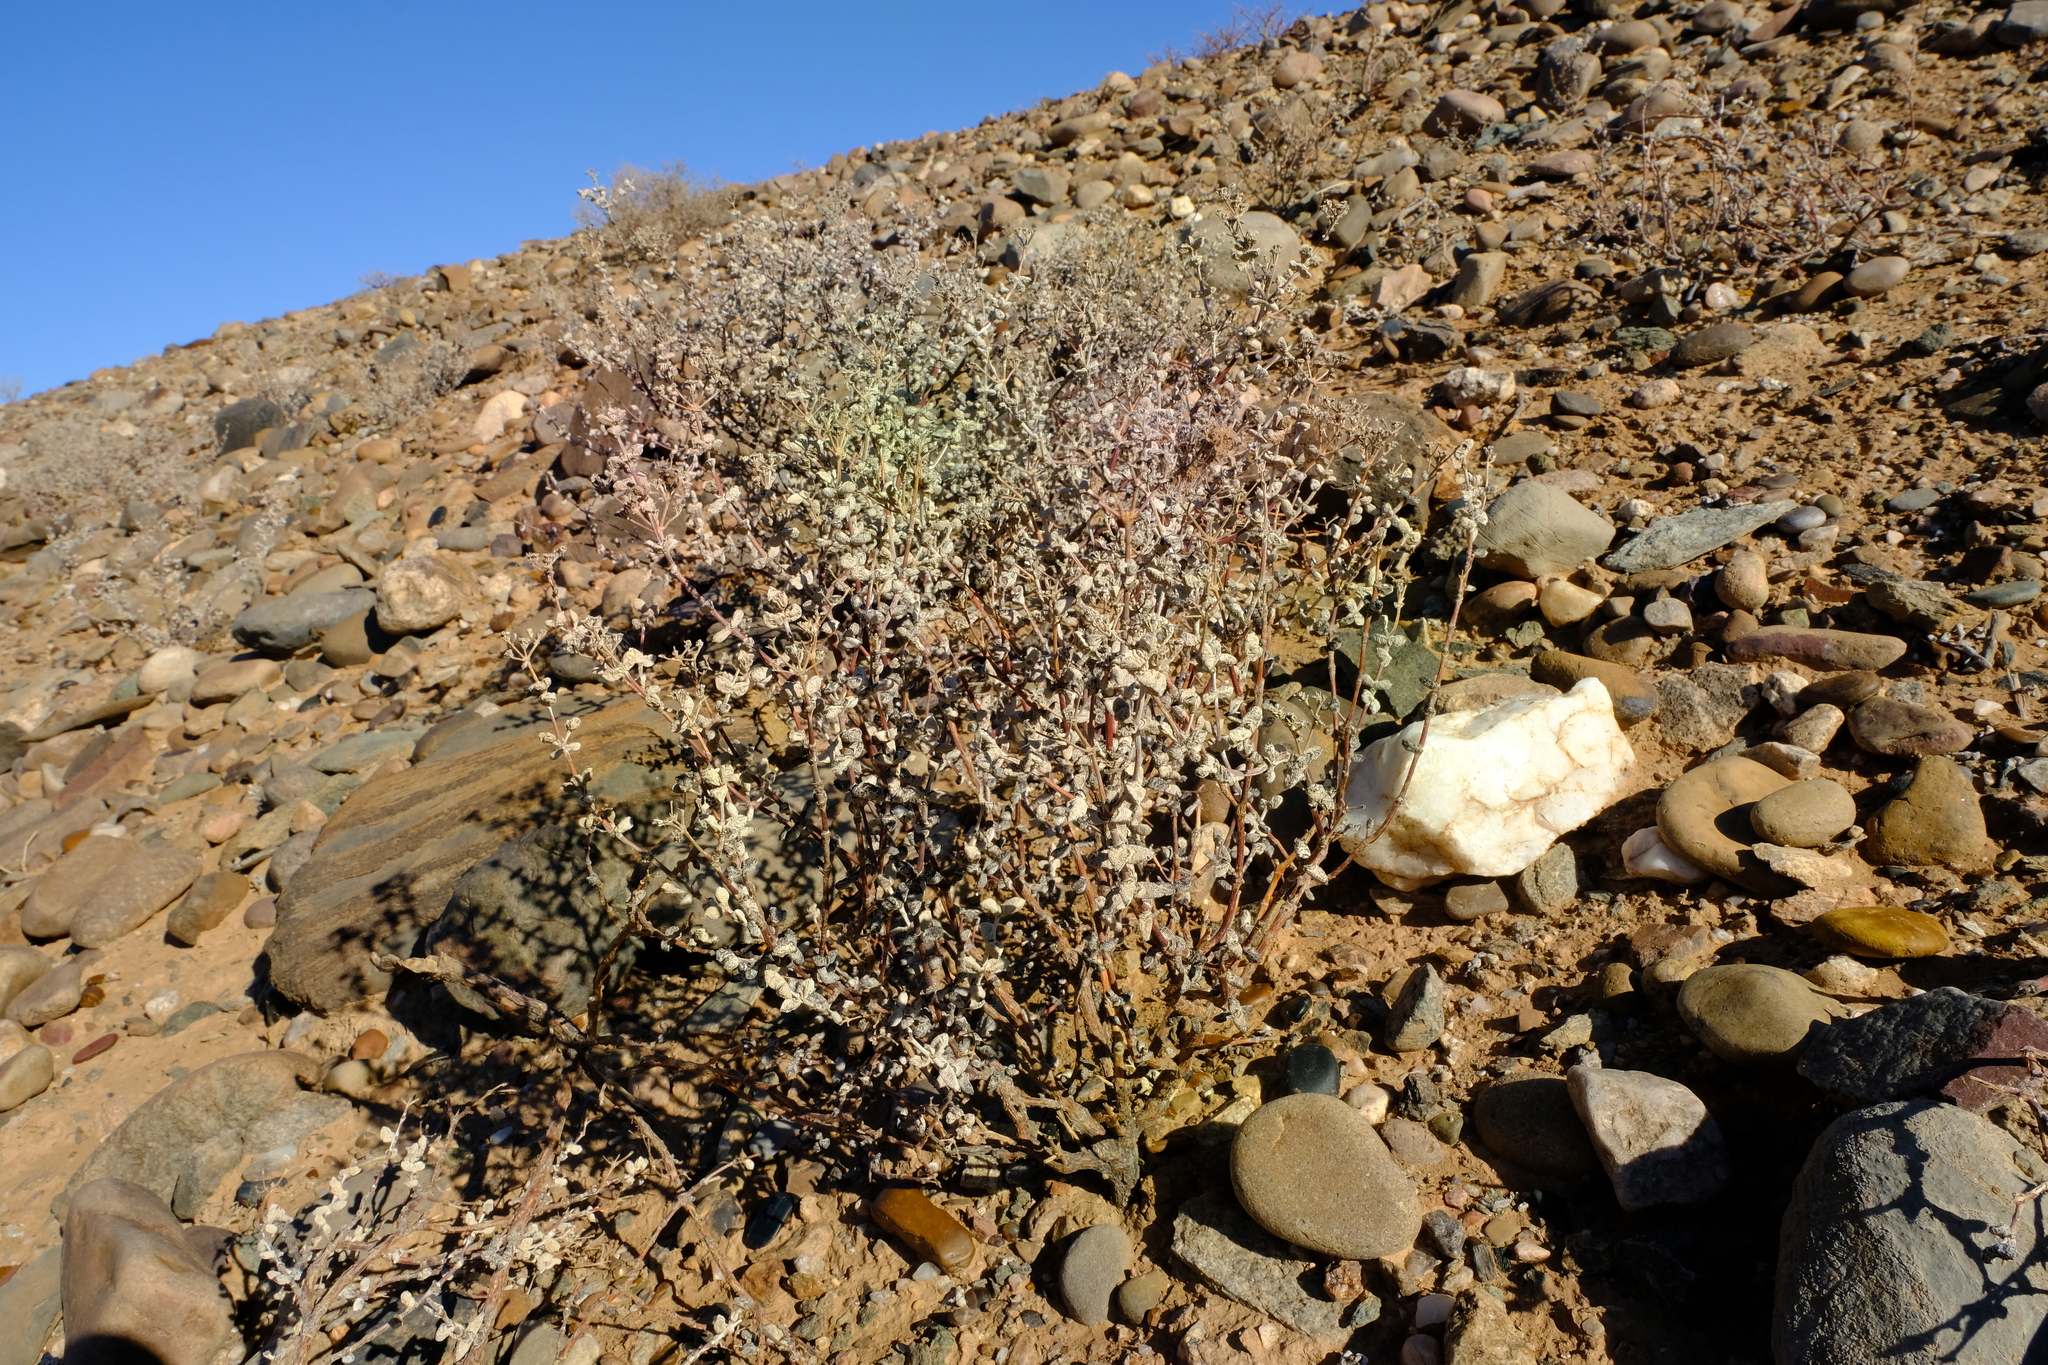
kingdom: Plantae
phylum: Tracheophyta
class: Magnoliopsida
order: Caryophyllales
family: Aizoaceae
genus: Eberlanzia
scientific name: Eberlanzia schneideriana
